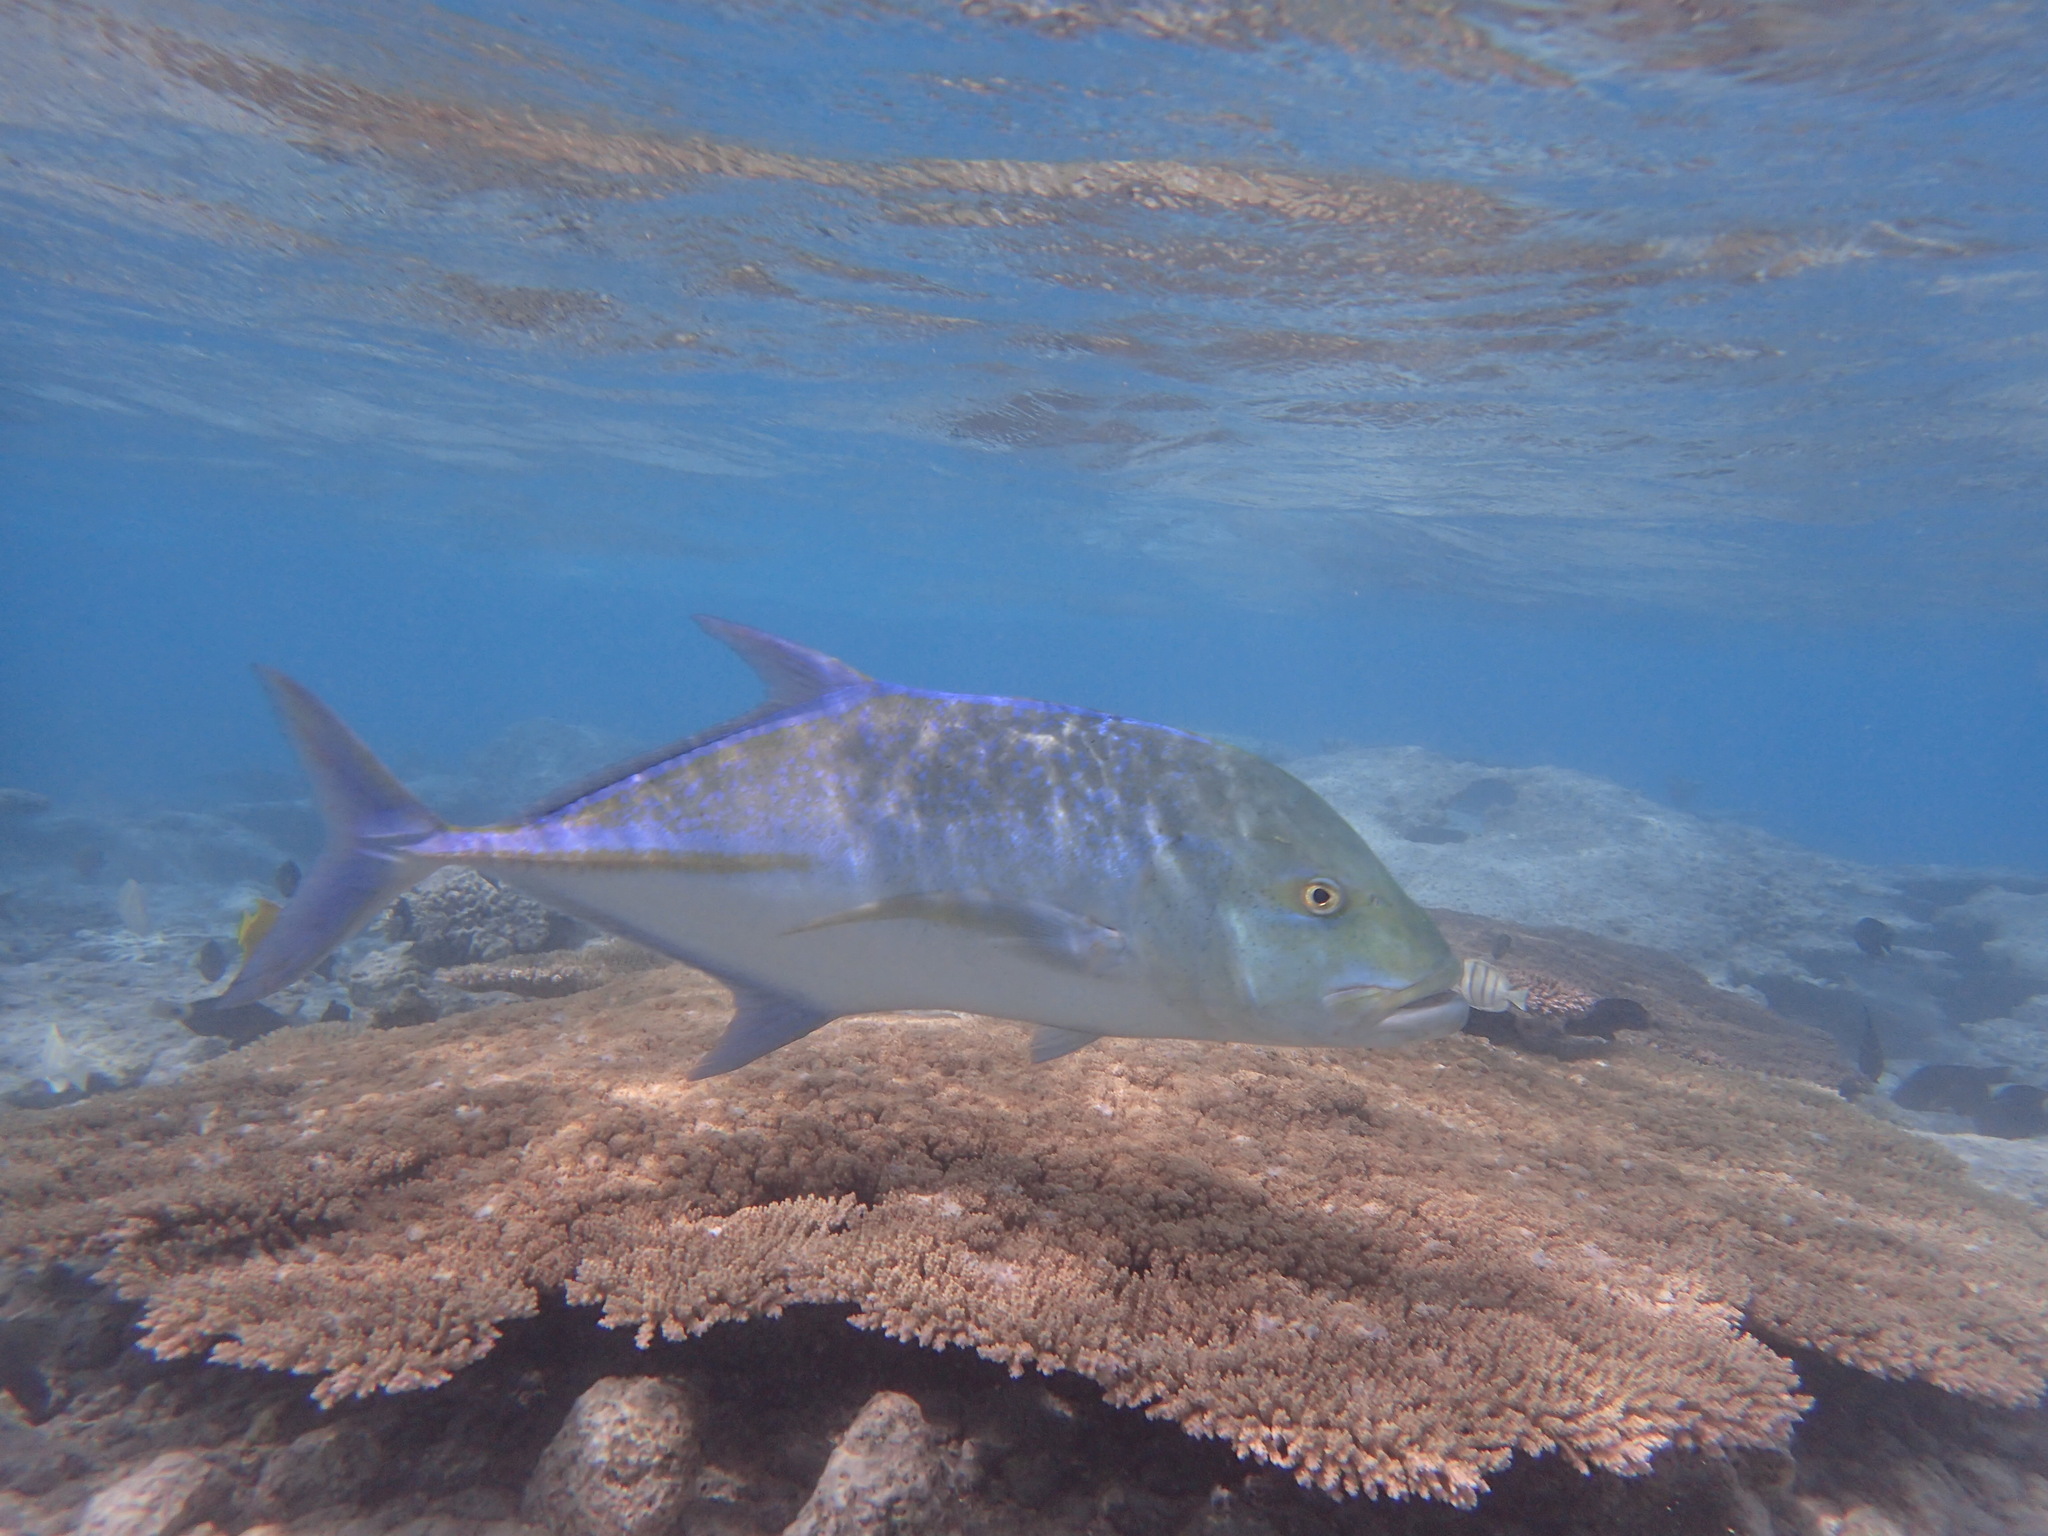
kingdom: Animalia
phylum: Chordata
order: Perciformes
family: Carangidae
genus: Caranx
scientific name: Caranx melampygus
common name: Bluefin trevally
